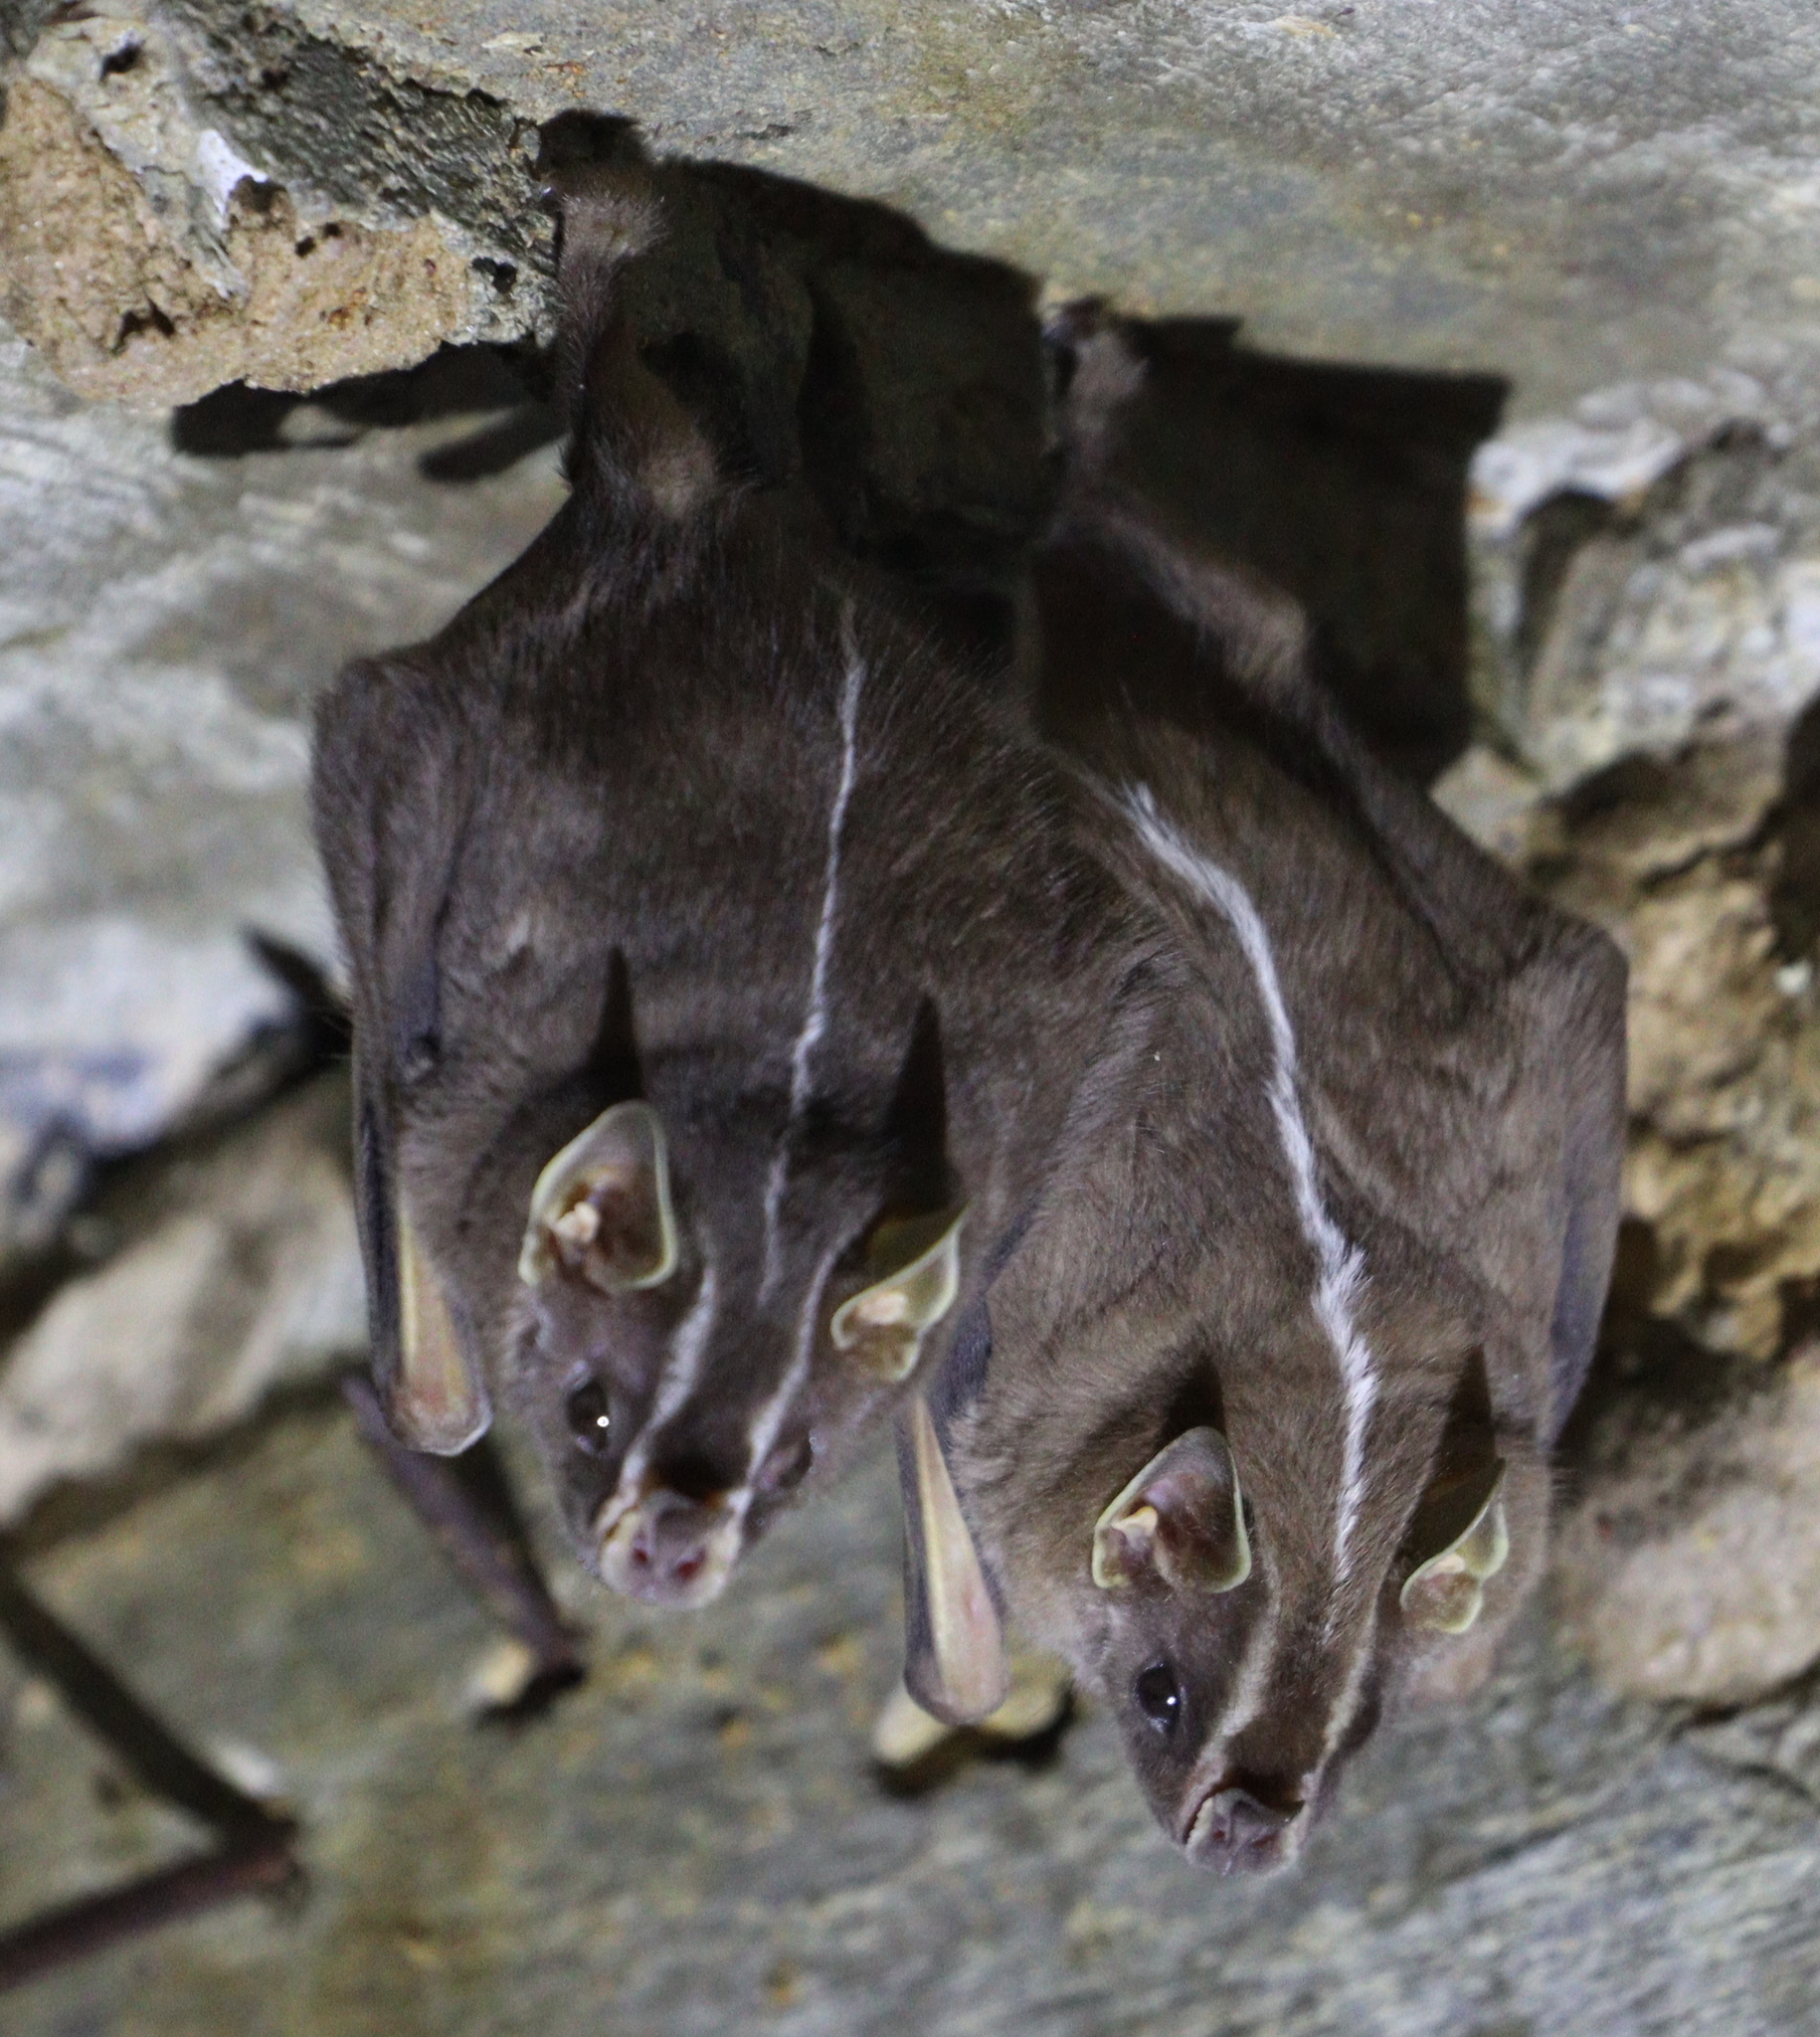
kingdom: Animalia
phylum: Chordata
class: Mammalia
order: Chiroptera
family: Phyllostomidae
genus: Platyrrhinus
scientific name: Platyrrhinus lineatus
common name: White-lined broad-nosed bat
